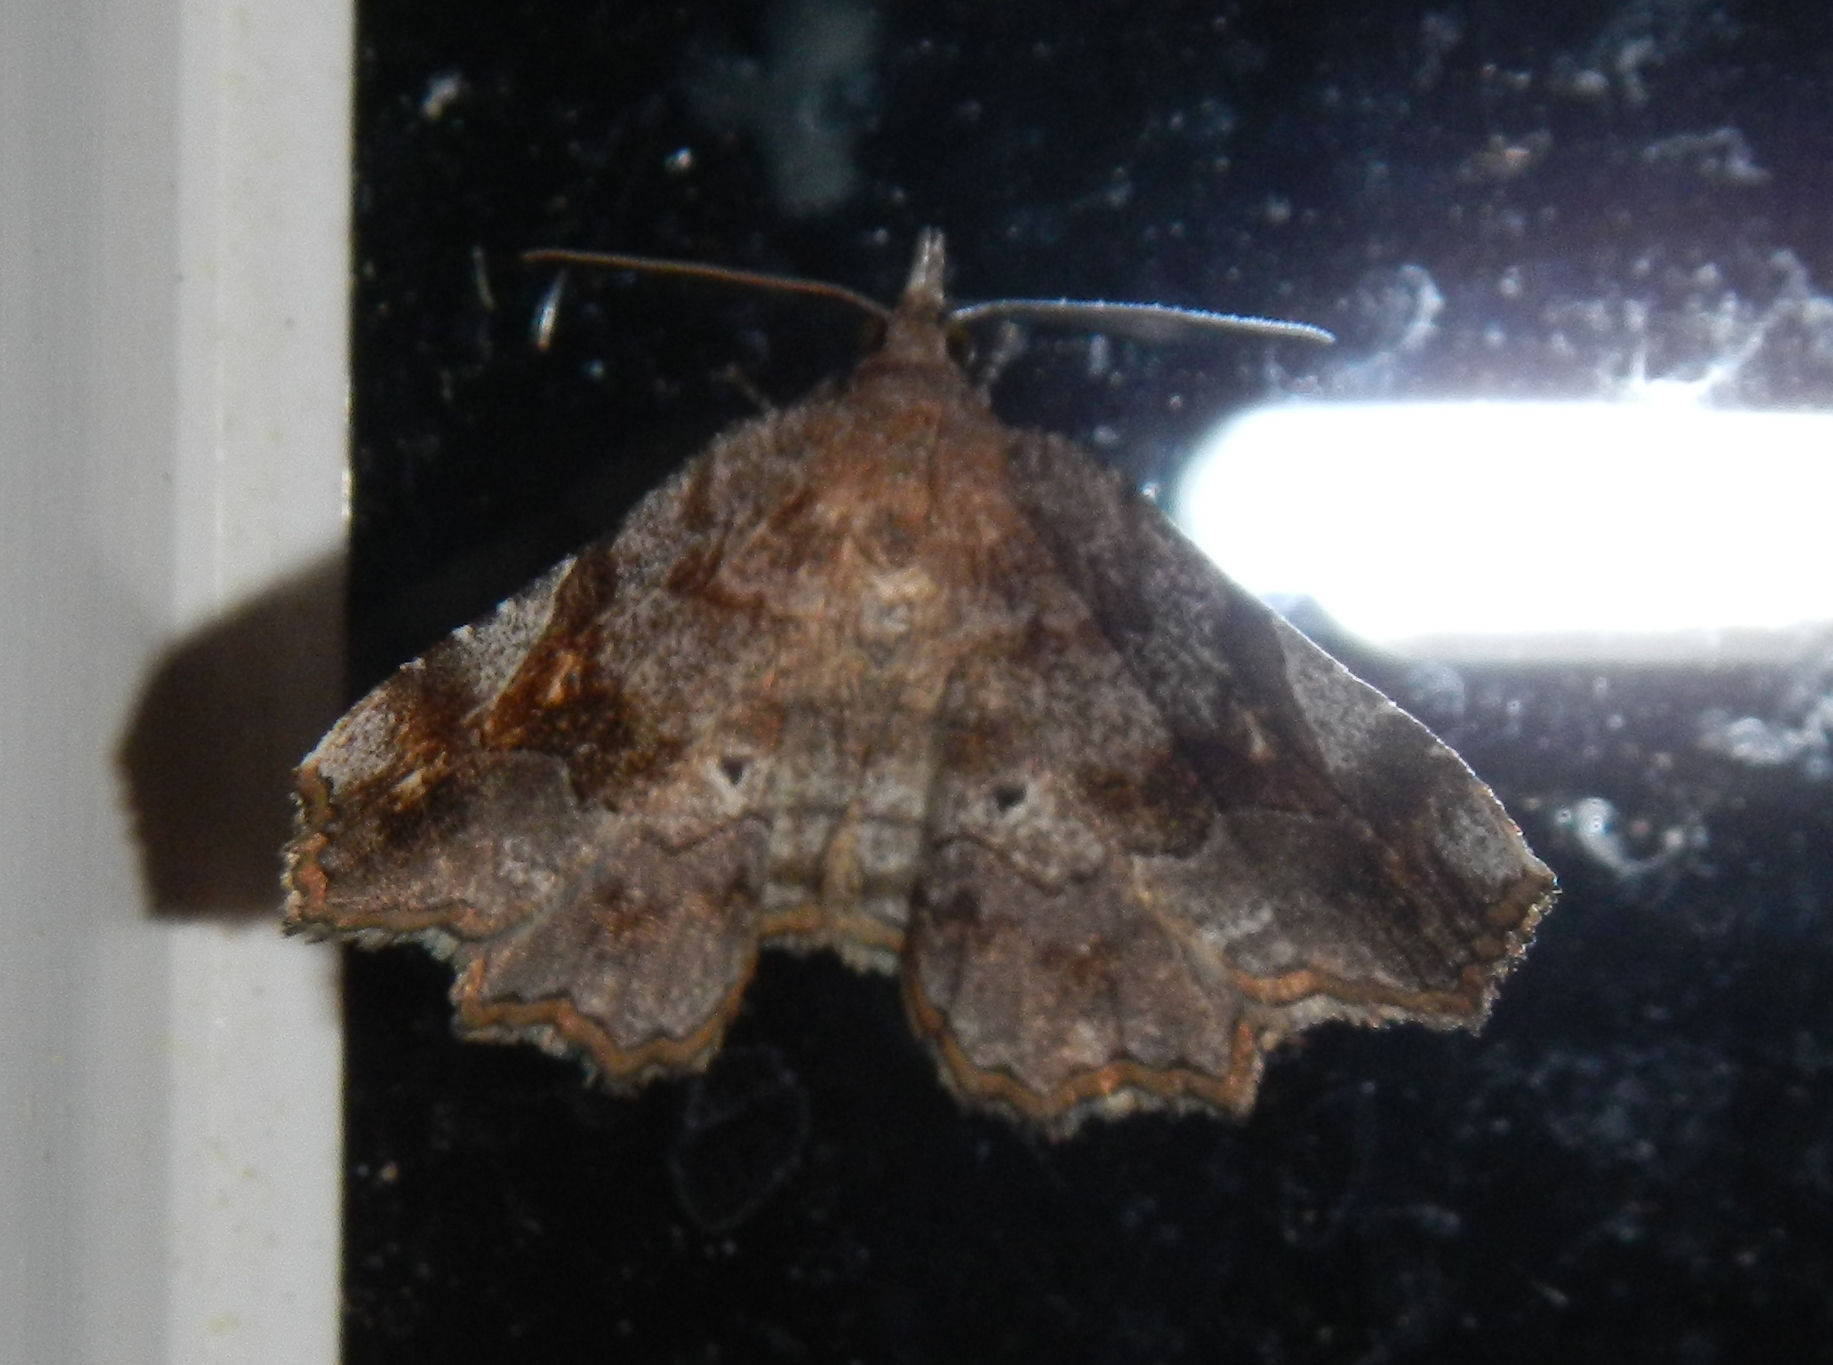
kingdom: Animalia
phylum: Arthropoda
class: Insecta
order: Lepidoptera
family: Erebidae
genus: Pangrapta
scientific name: Pangrapta decoralis
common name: Decorated owlet
